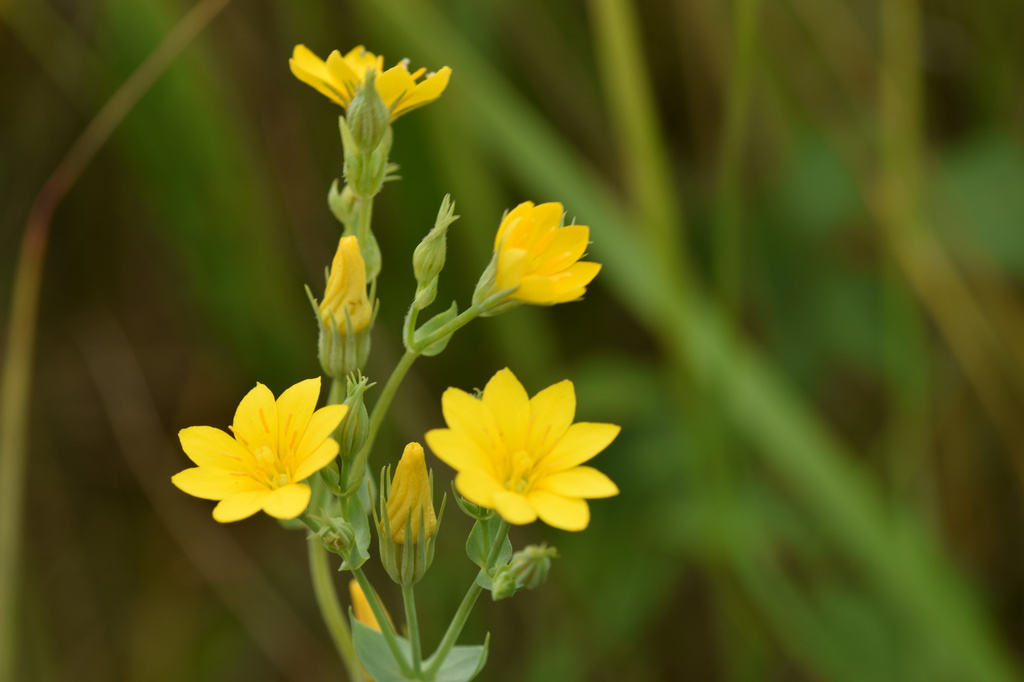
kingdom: Plantae
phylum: Tracheophyta
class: Magnoliopsida
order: Gentianales
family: Gentianaceae
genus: Blackstonia
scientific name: Blackstonia perfoliata
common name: Yellow-wort
